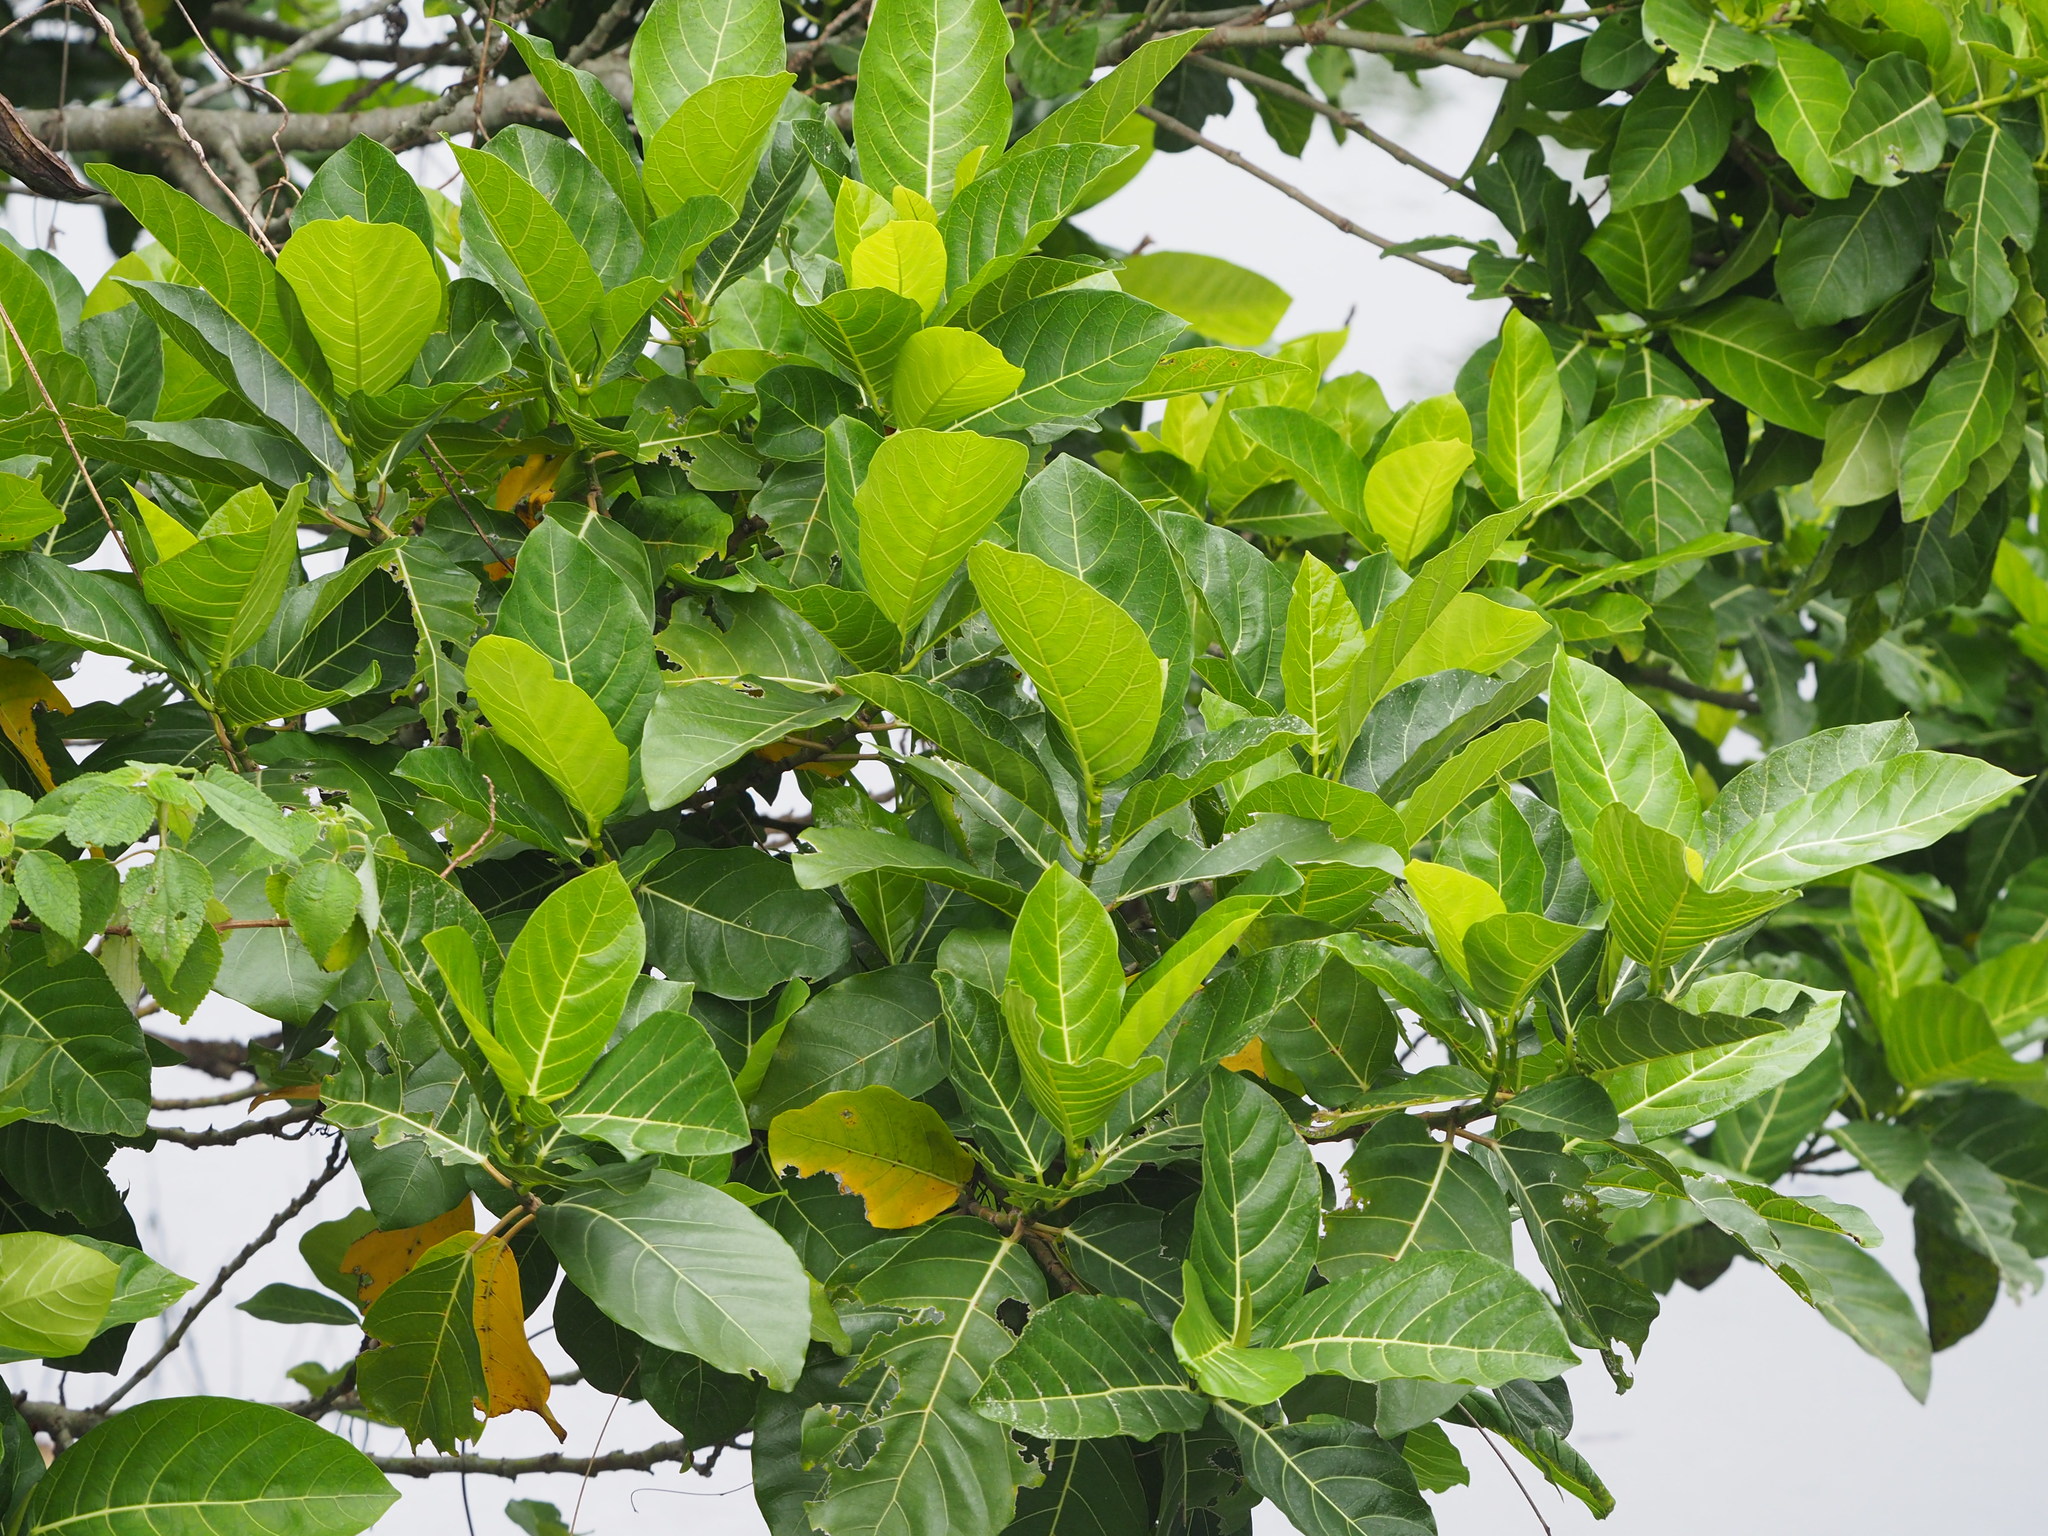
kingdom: Plantae
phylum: Tracheophyta
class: Magnoliopsida
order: Rosales
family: Moraceae
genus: Ficus
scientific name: Ficus septica
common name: Septic fig
